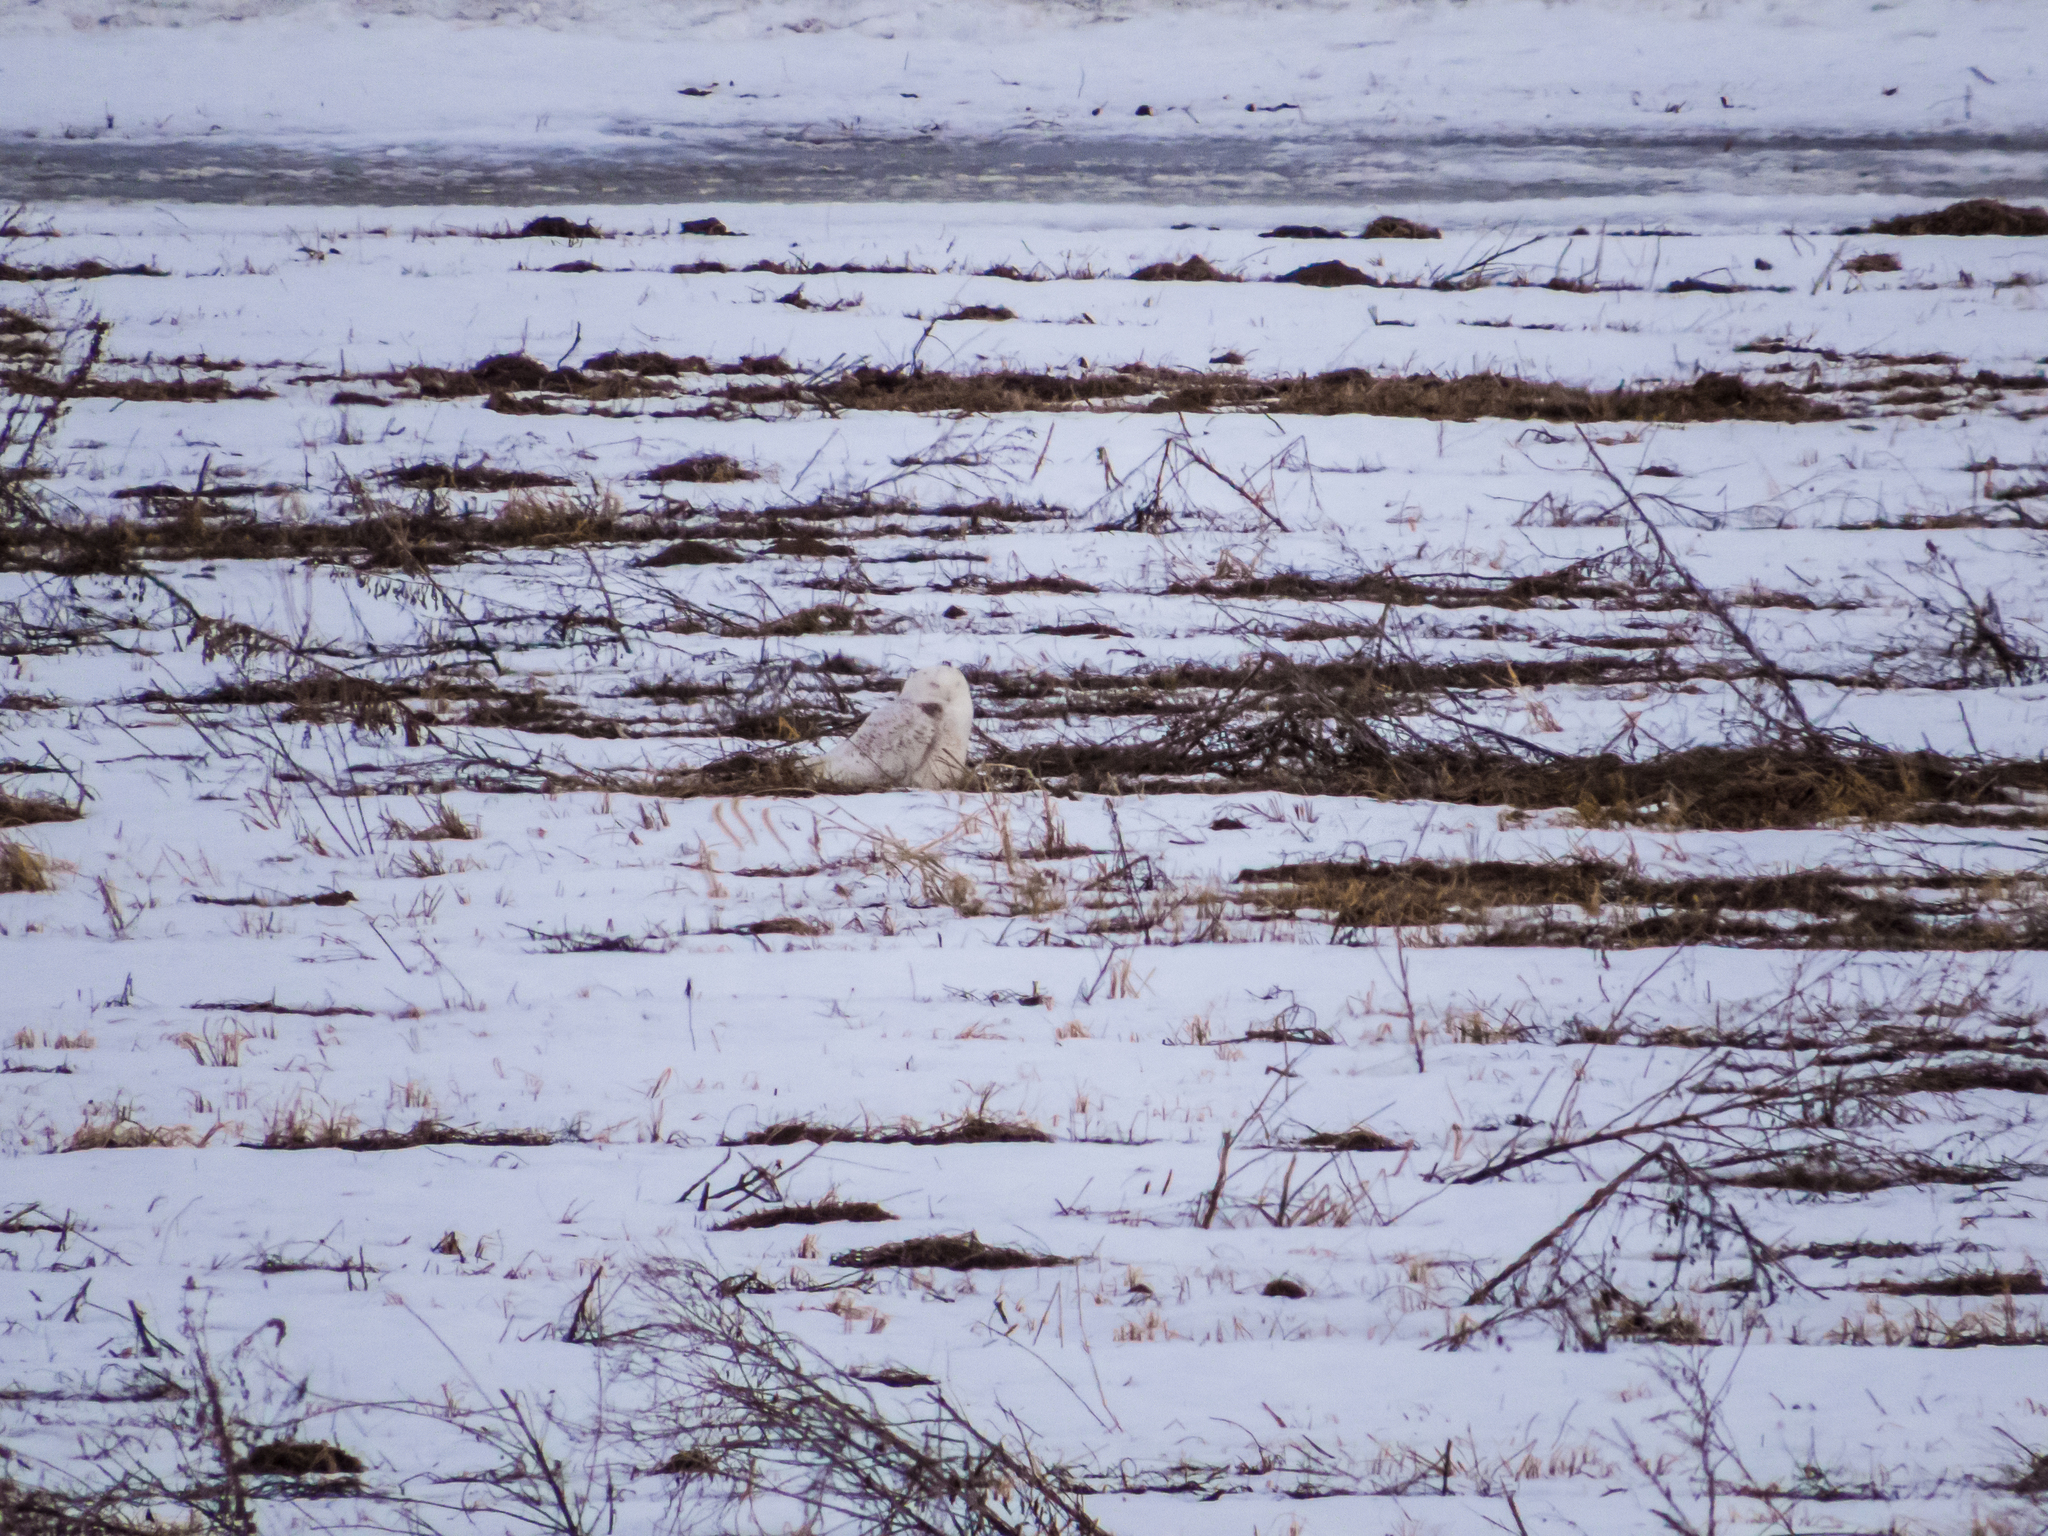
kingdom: Animalia
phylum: Chordata
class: Aves
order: Strigiformes
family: Strigidae
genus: Bubo
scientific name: Bubo scandiacus
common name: Snowy owl
